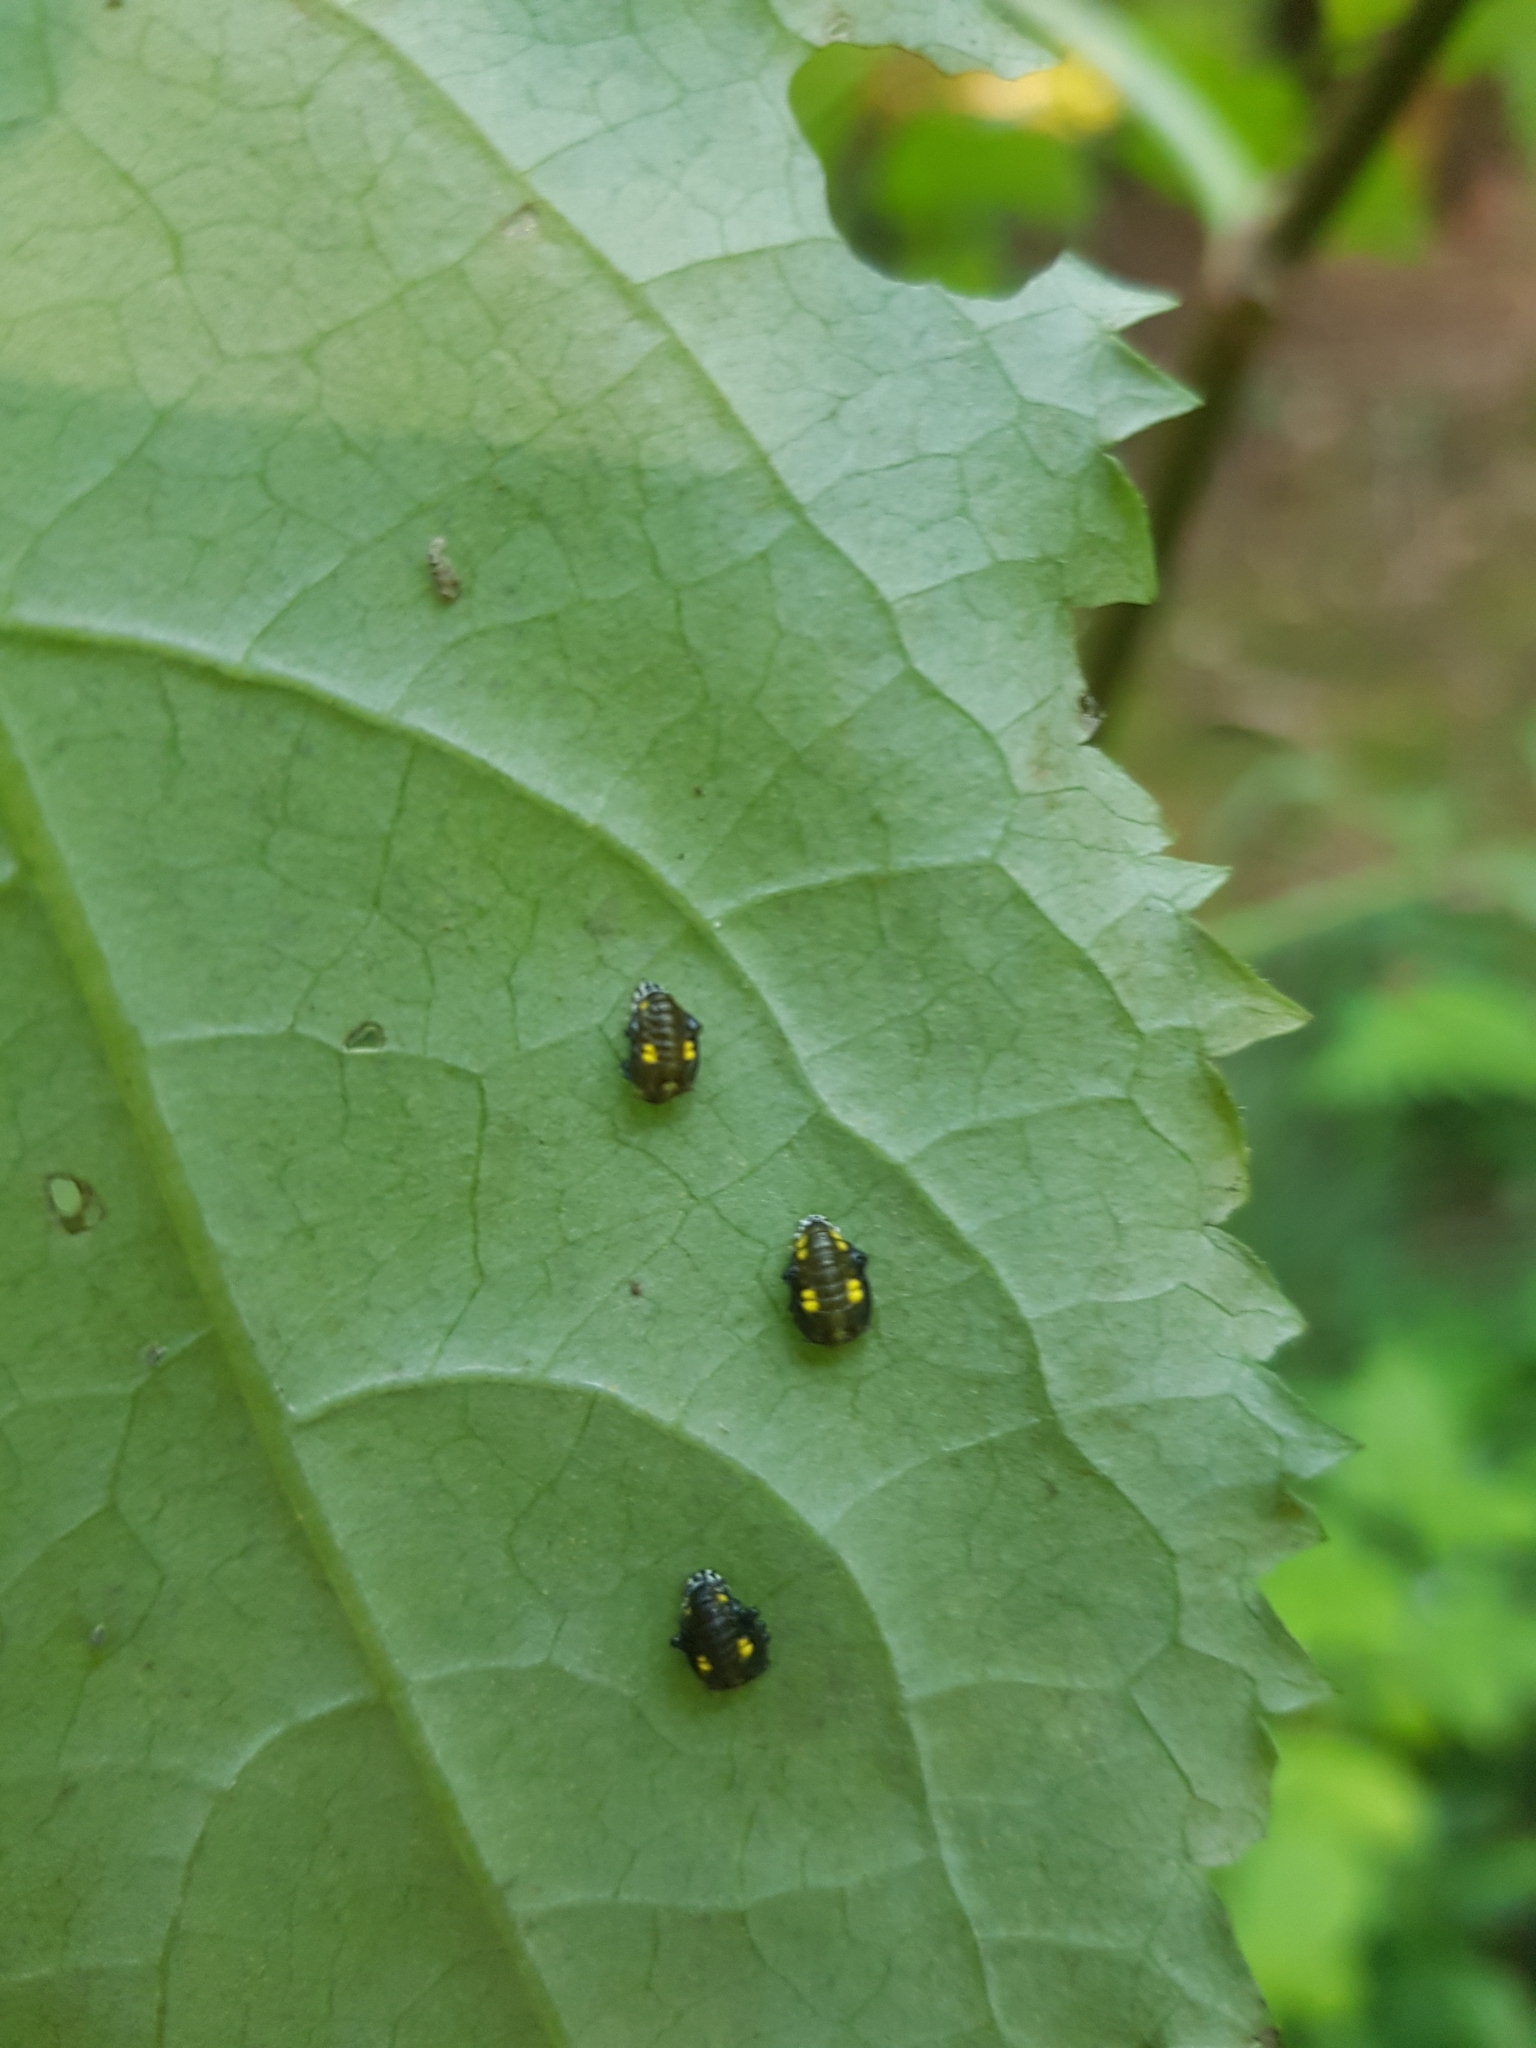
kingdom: Animalia
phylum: Arthropoda
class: Insecta
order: Coleoptera
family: Coccinellidae
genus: Halyzia
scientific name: Halyzia sedecimguttata
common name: Orange ladybird
